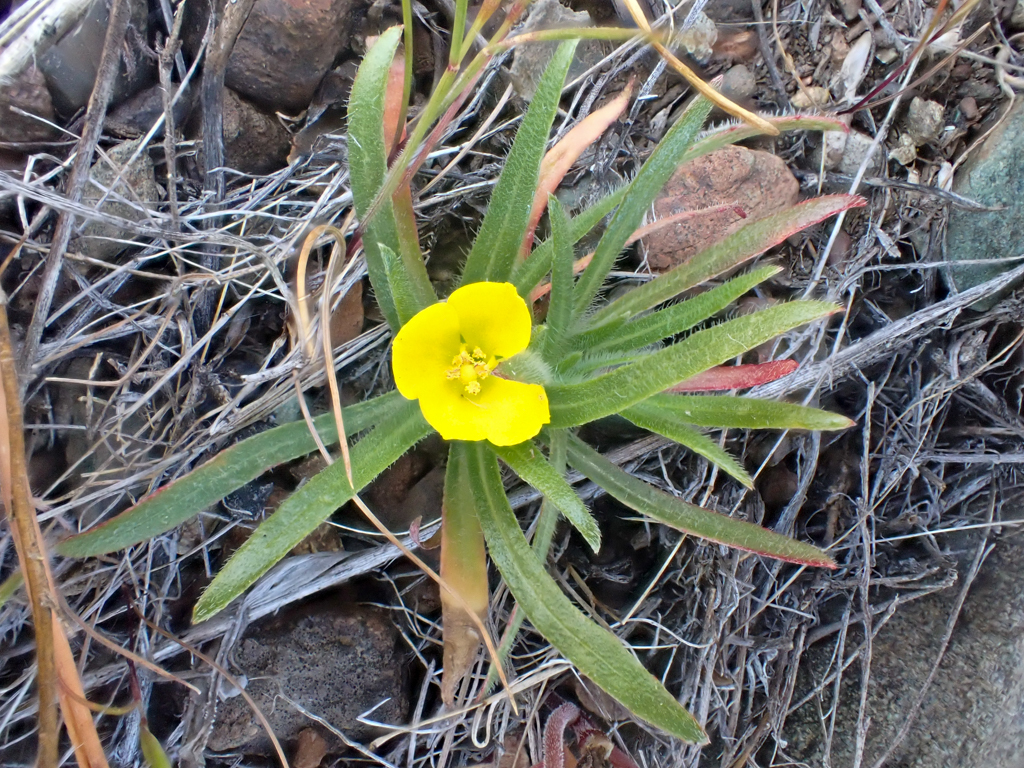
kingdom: Plantae
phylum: Tracheophyta
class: Magnoliopsida
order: Myrtales
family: Onagraceae
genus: Tetrapteron
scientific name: Tetrapteron graciliflorum
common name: Hill suncup
